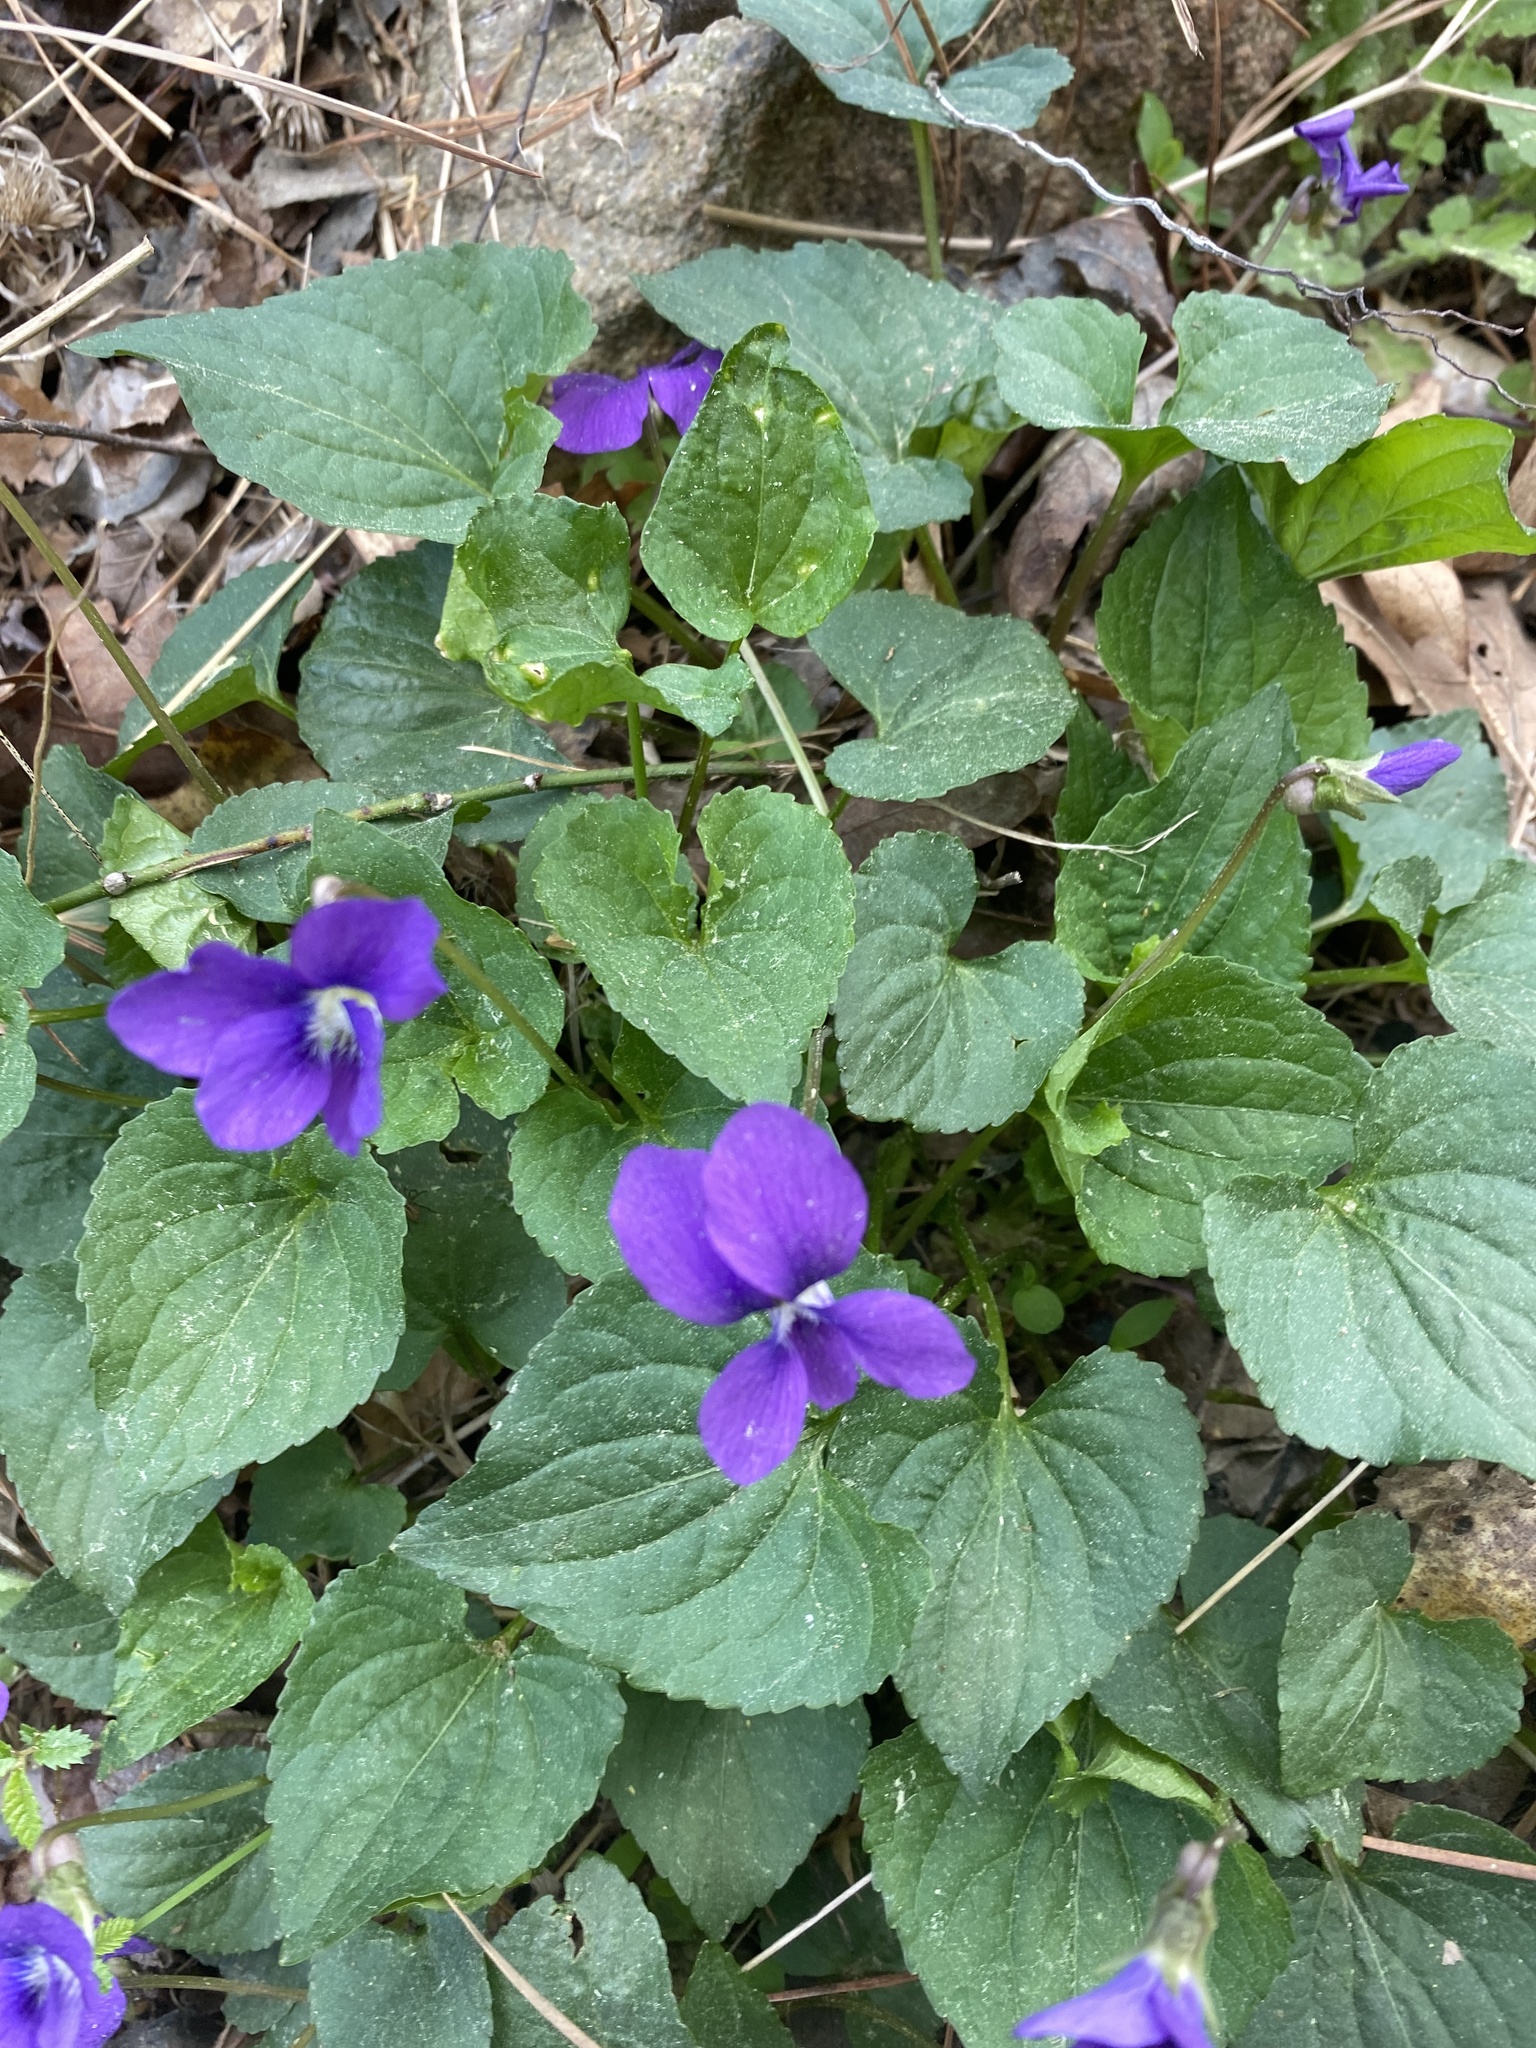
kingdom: Plantae
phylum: Tracheophyta
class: Magnoliopsida
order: Malpighiales
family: Violaceae
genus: Viola
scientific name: Viola sororia
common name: Dooryard violet
